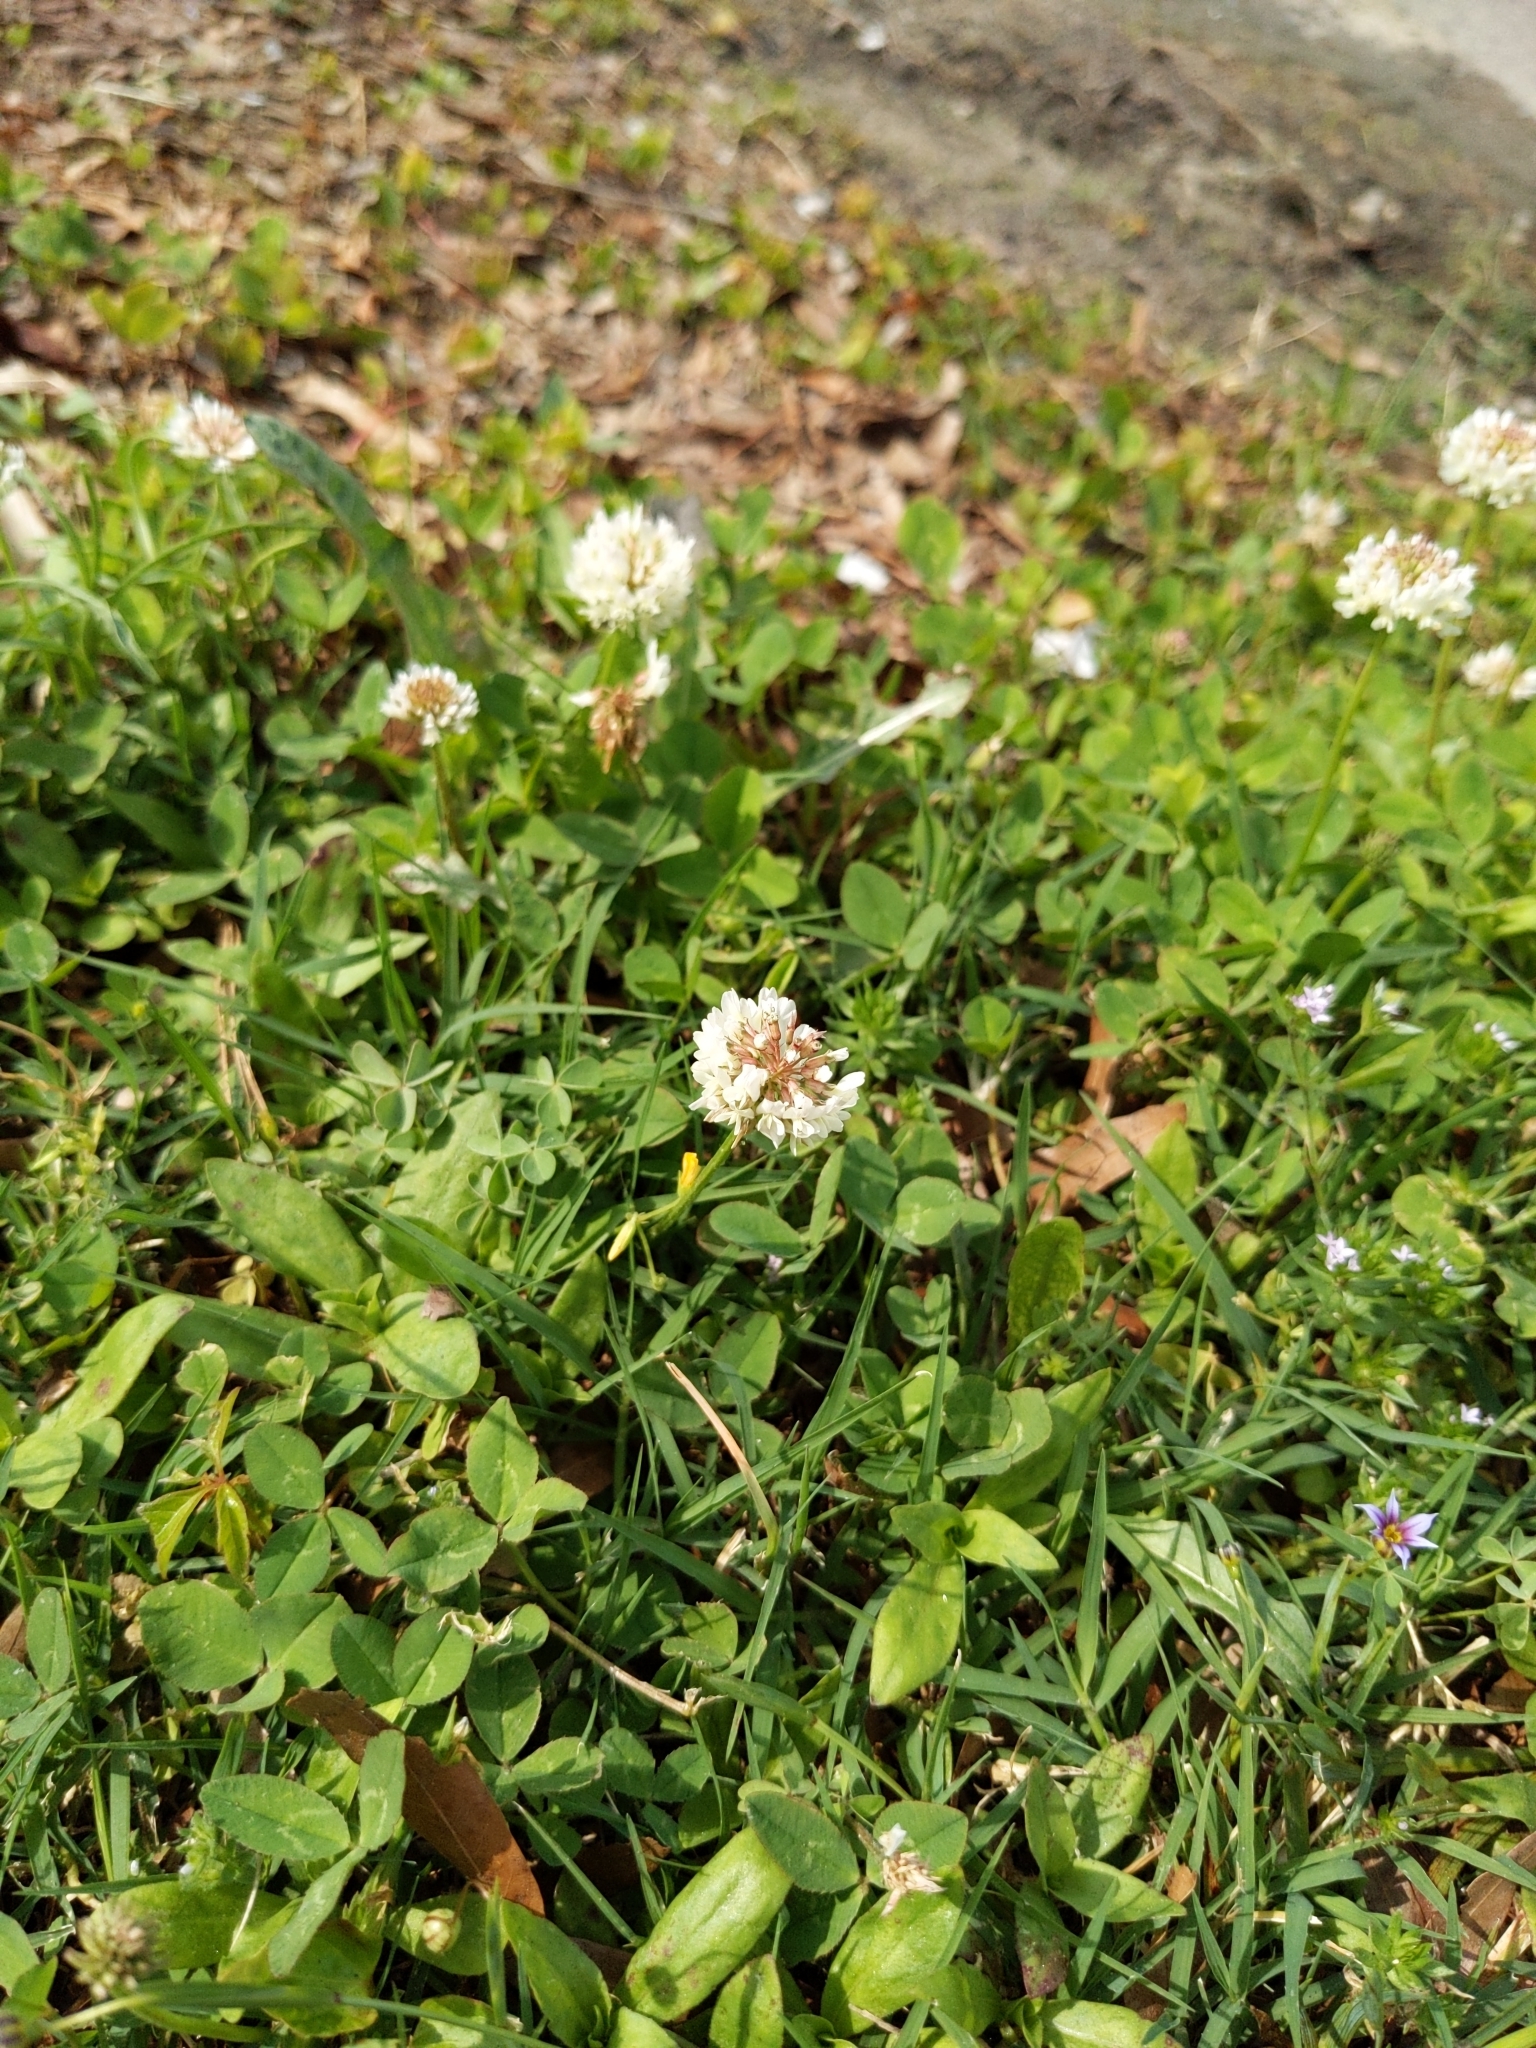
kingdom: Plantae
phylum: Tracheophyta
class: Magnoliopsida
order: Fabales
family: Fabaceae
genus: Trifolium
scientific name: Trifolium repens
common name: White clover
